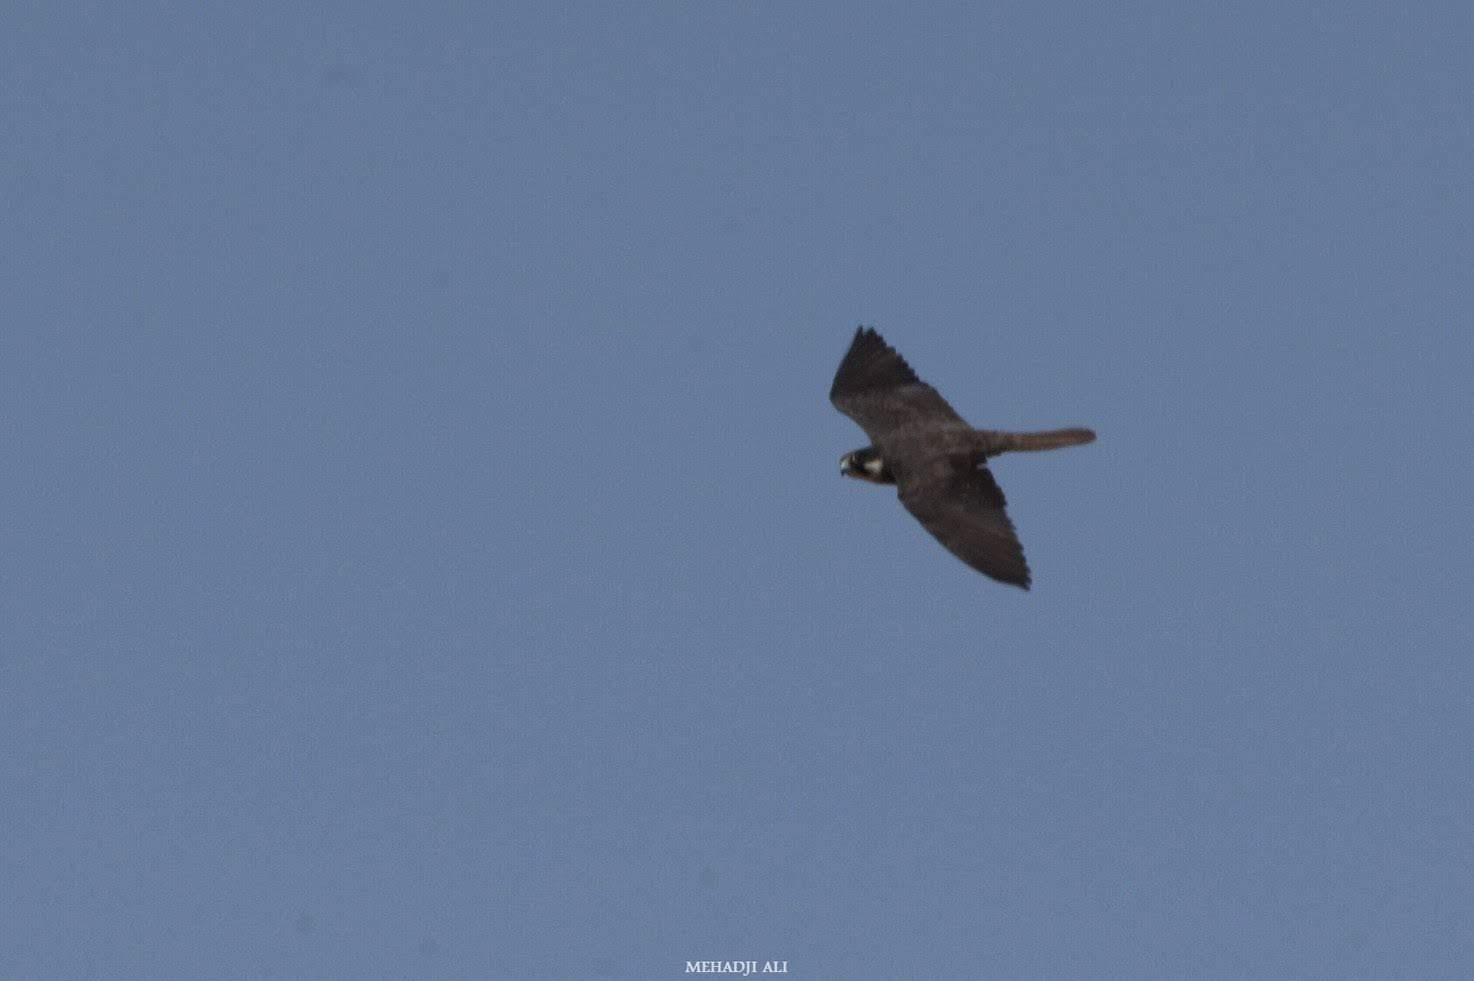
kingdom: Animalia
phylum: Chordata
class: Aves
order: Falconiformes
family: Falconidae
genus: Falco
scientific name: Falco eleonorae
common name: Eleonora's falcon
